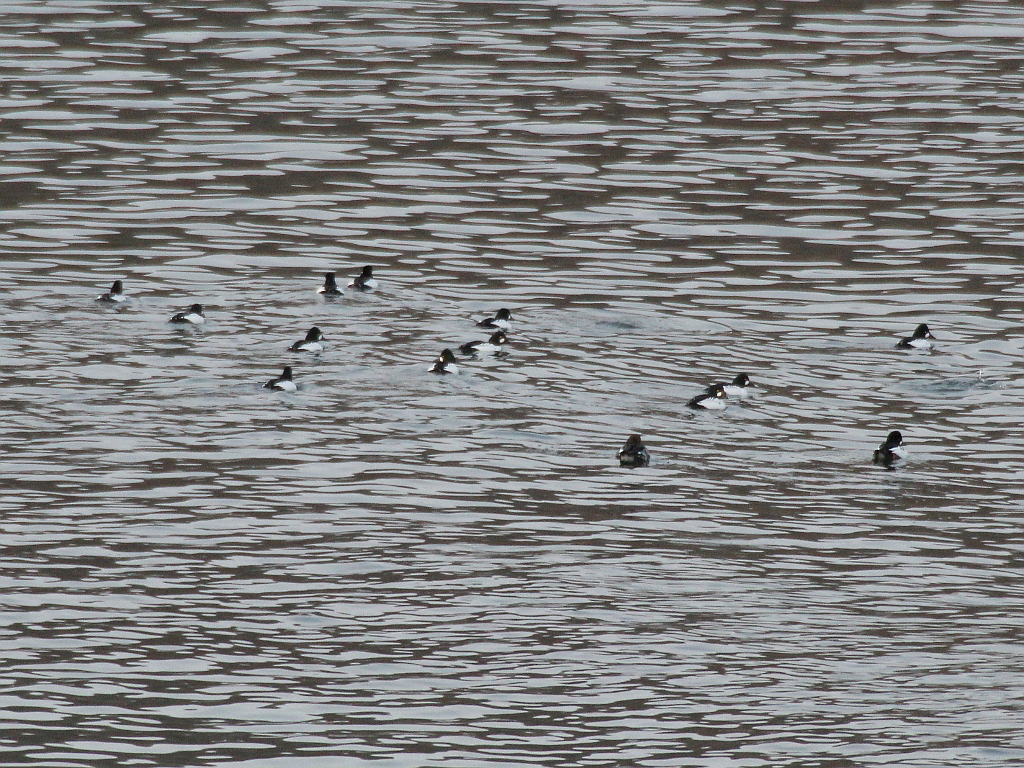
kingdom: Animalia
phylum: Chordata
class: Aves
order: Anseriformes
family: Anatidae
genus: Bucephala
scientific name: Bucephala clangula
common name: Common goldeneye
